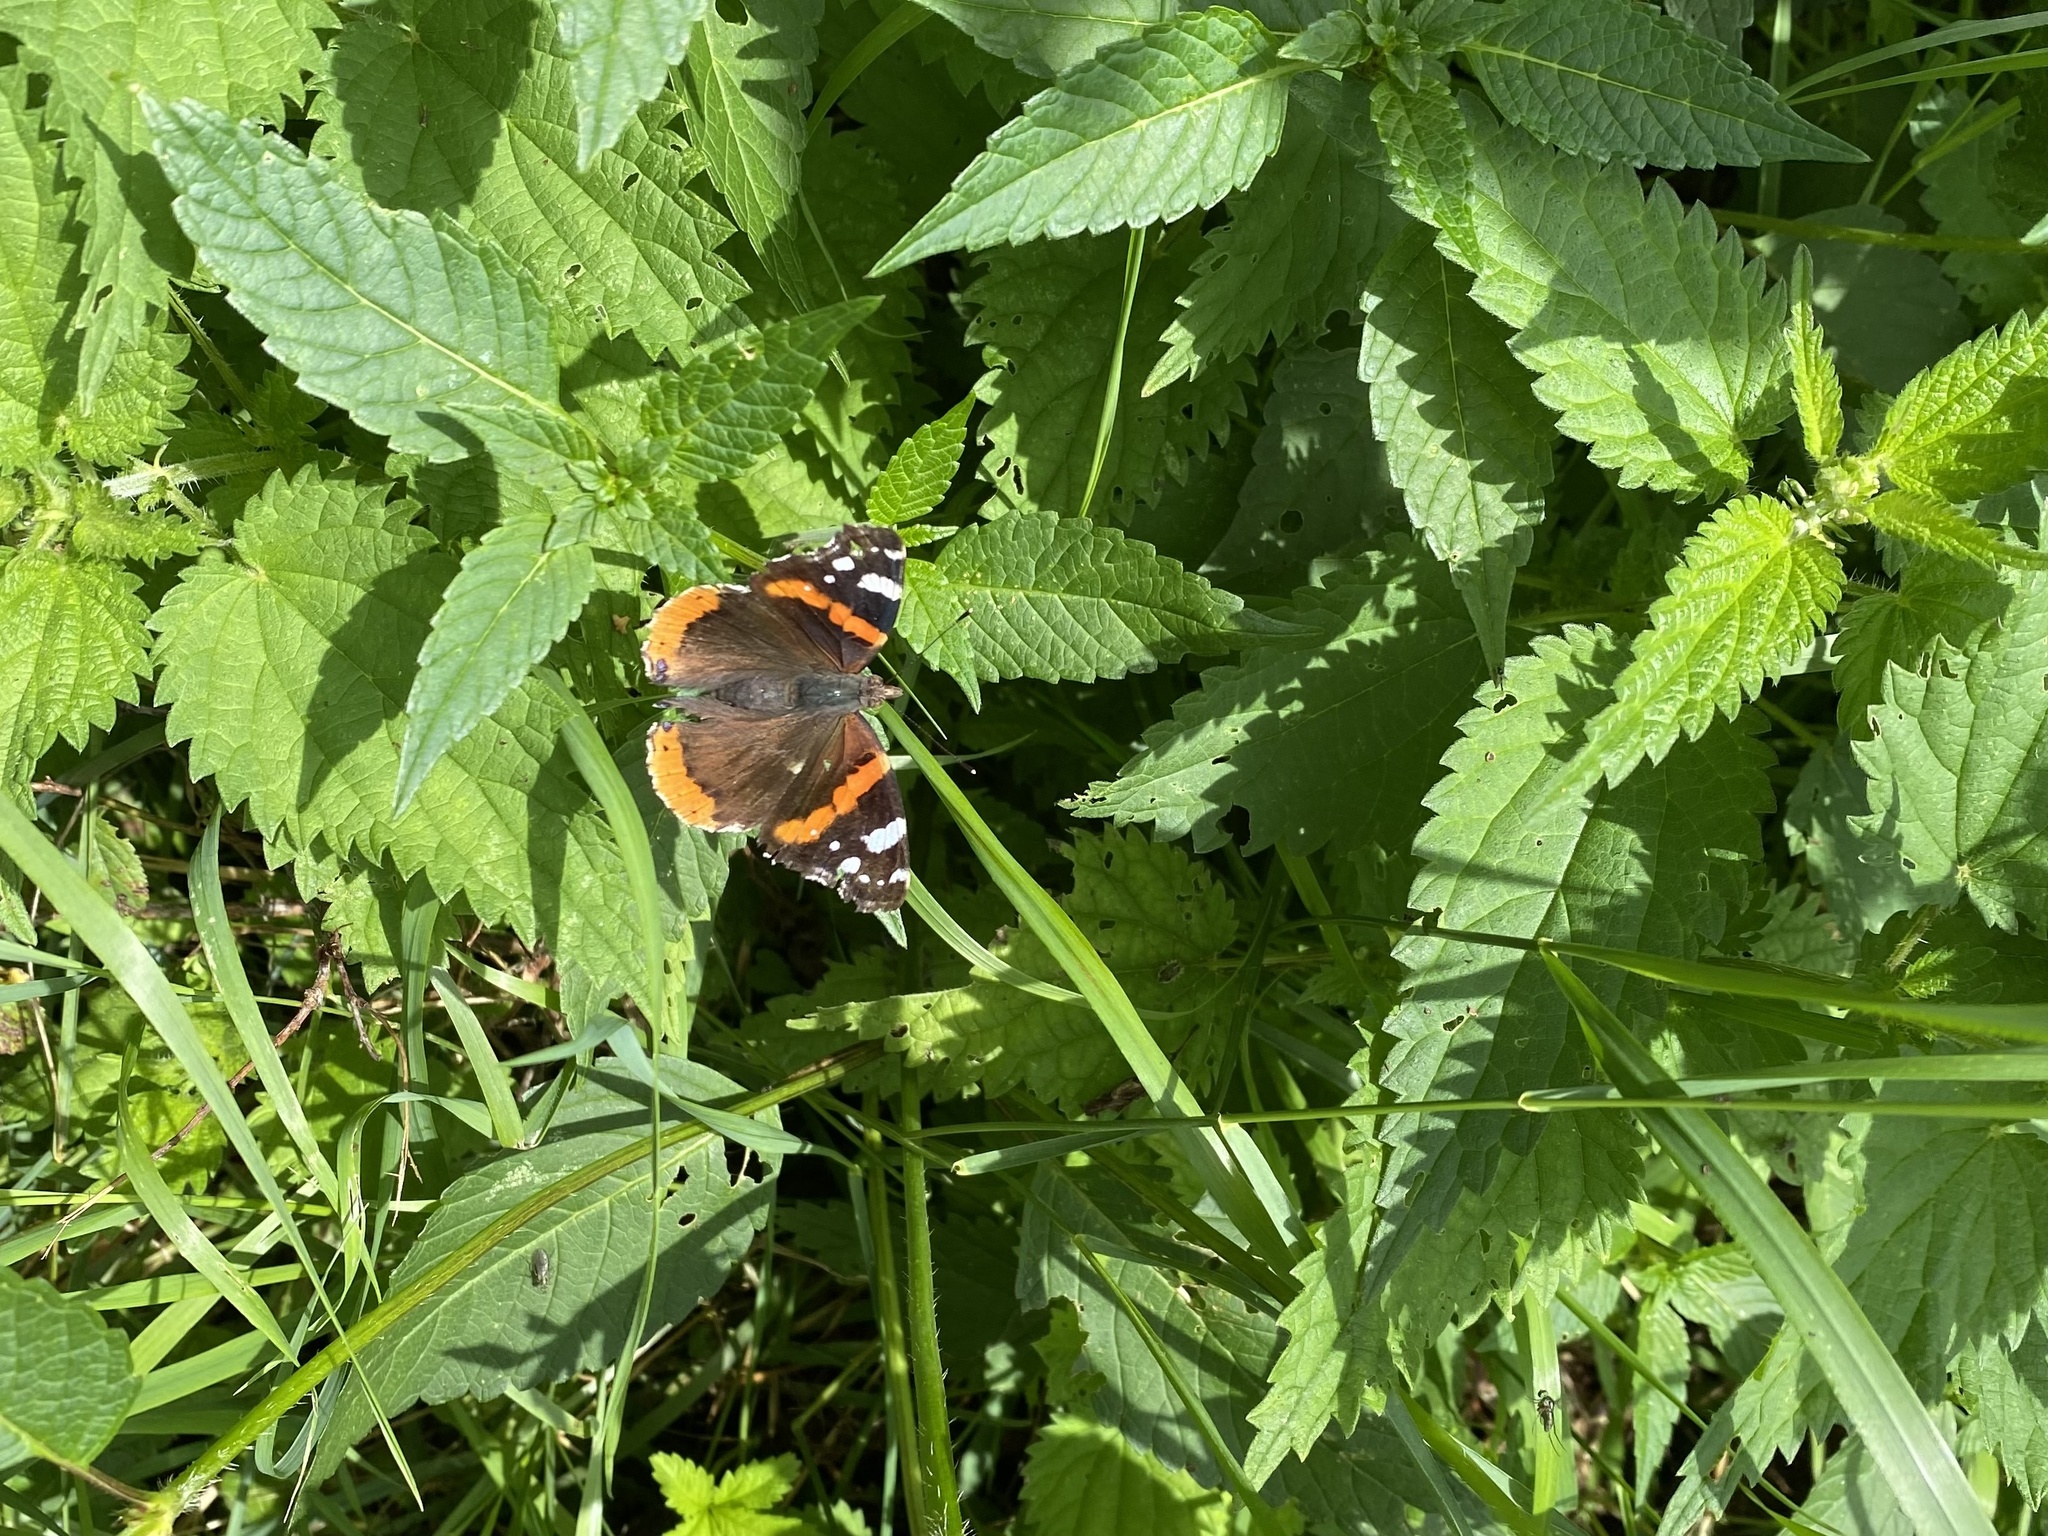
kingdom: Animalia
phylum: Arthropoda
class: Insecta
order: Lepidoptera
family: Nymphalidae
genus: Vanessa
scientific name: Vanessa atalanta
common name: Red admiral
